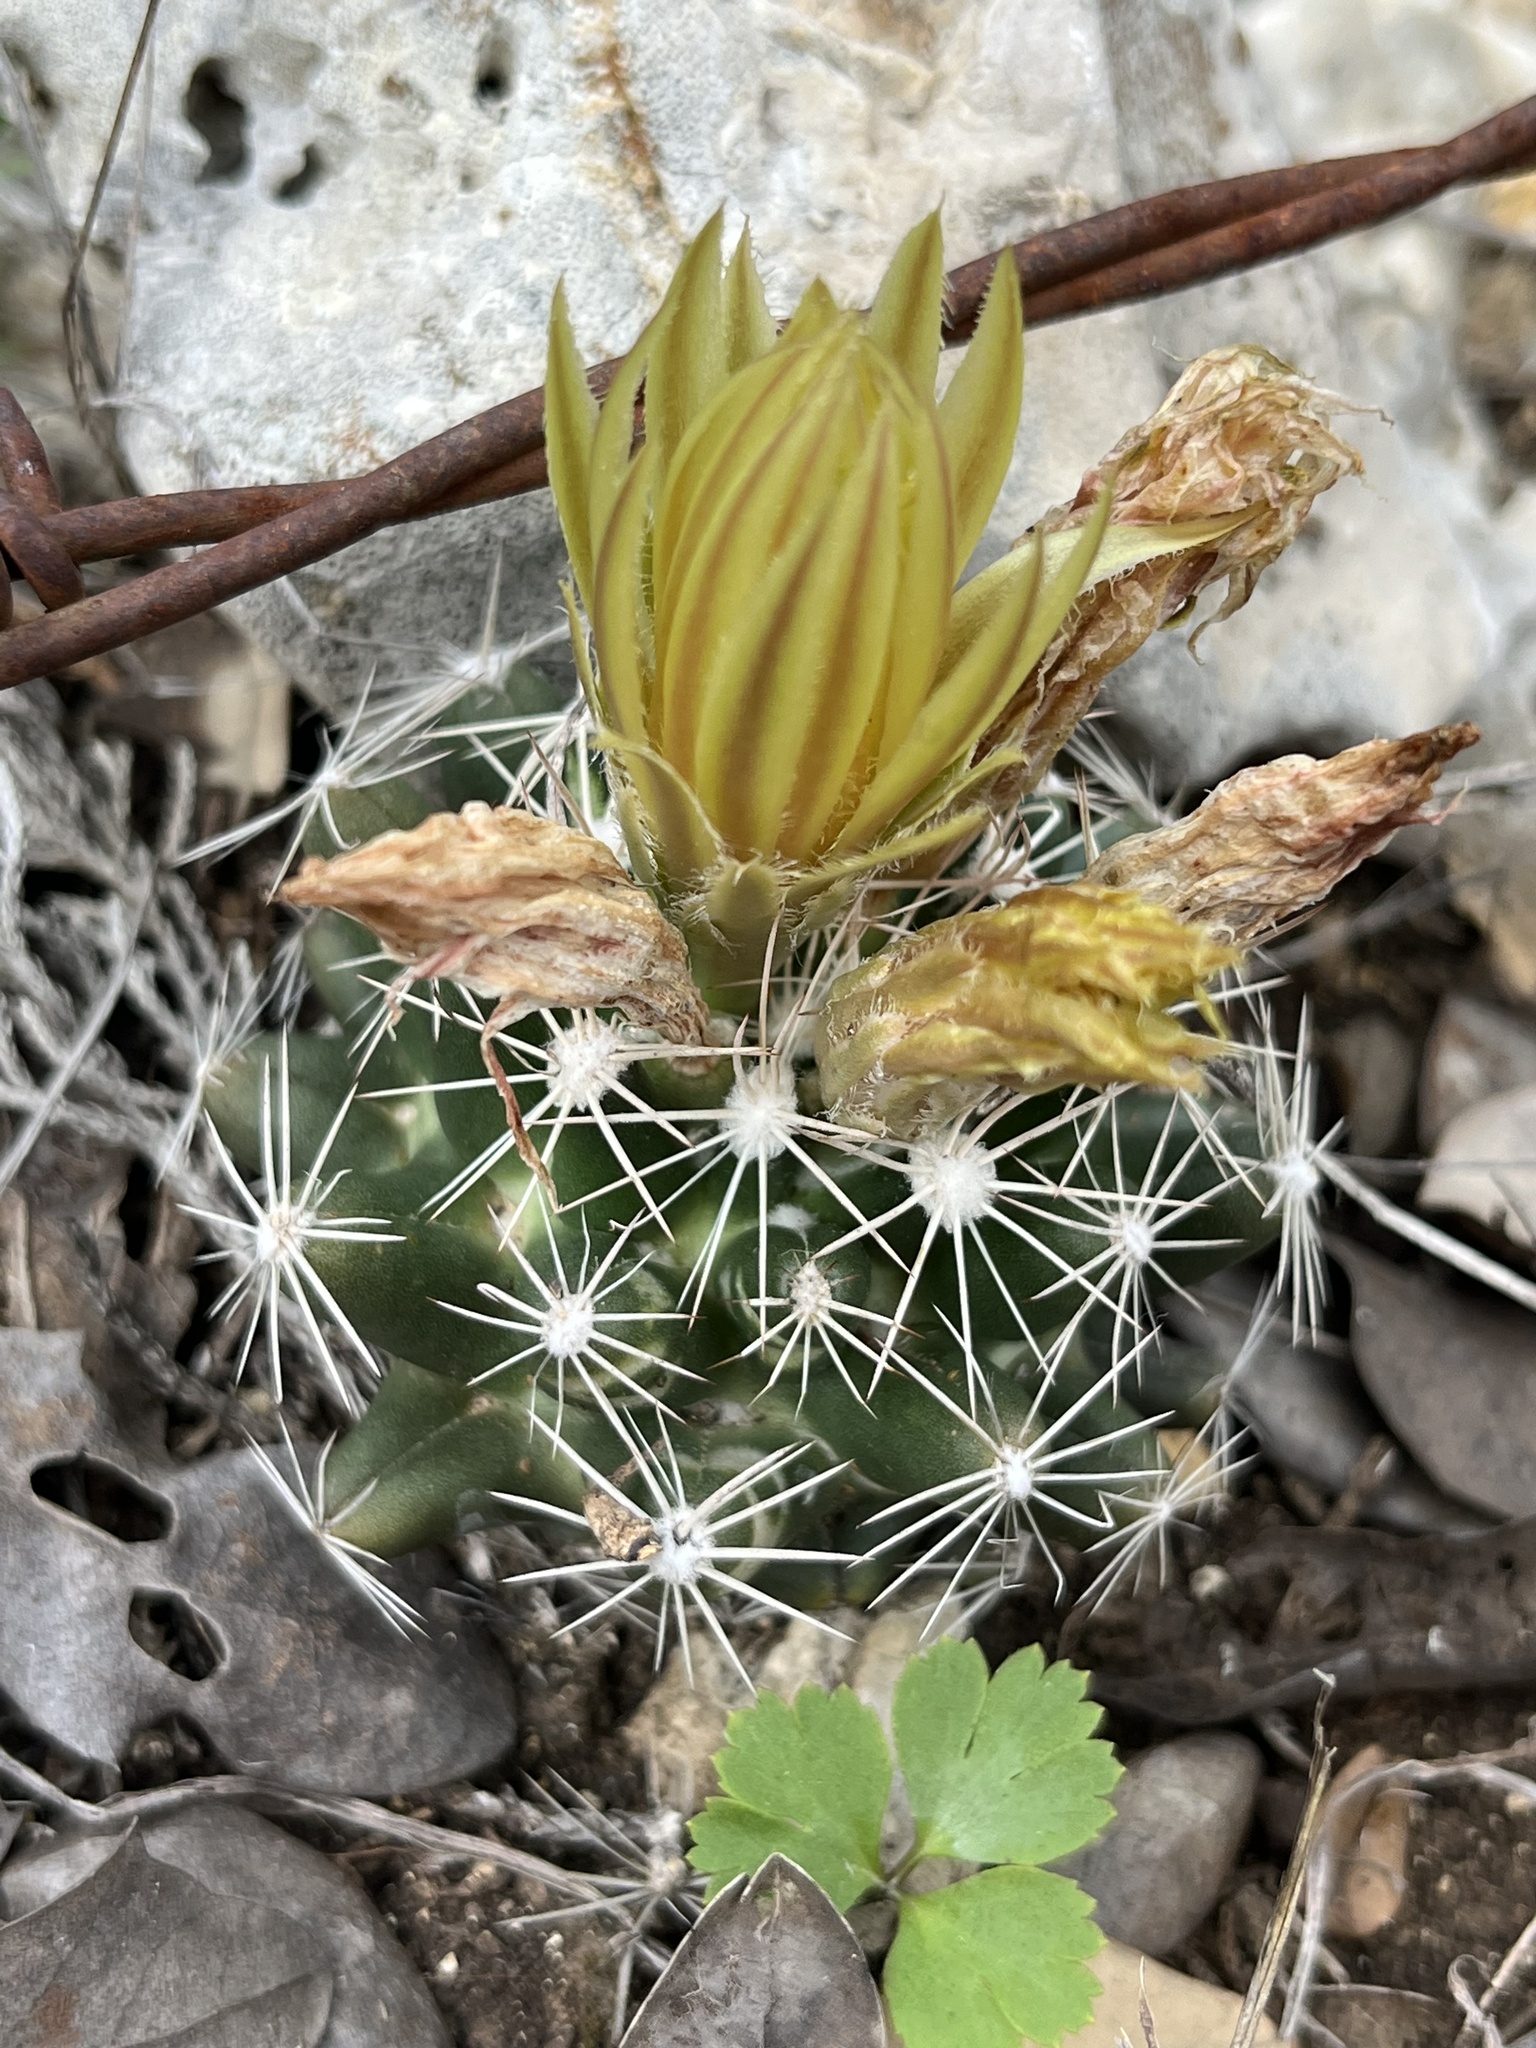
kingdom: Plantae
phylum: Tracheophyta
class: Magnoliopsida
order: Caryophyllales
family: Cactaceae
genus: Pelecyphora
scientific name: Pelecyphora missouriensis
